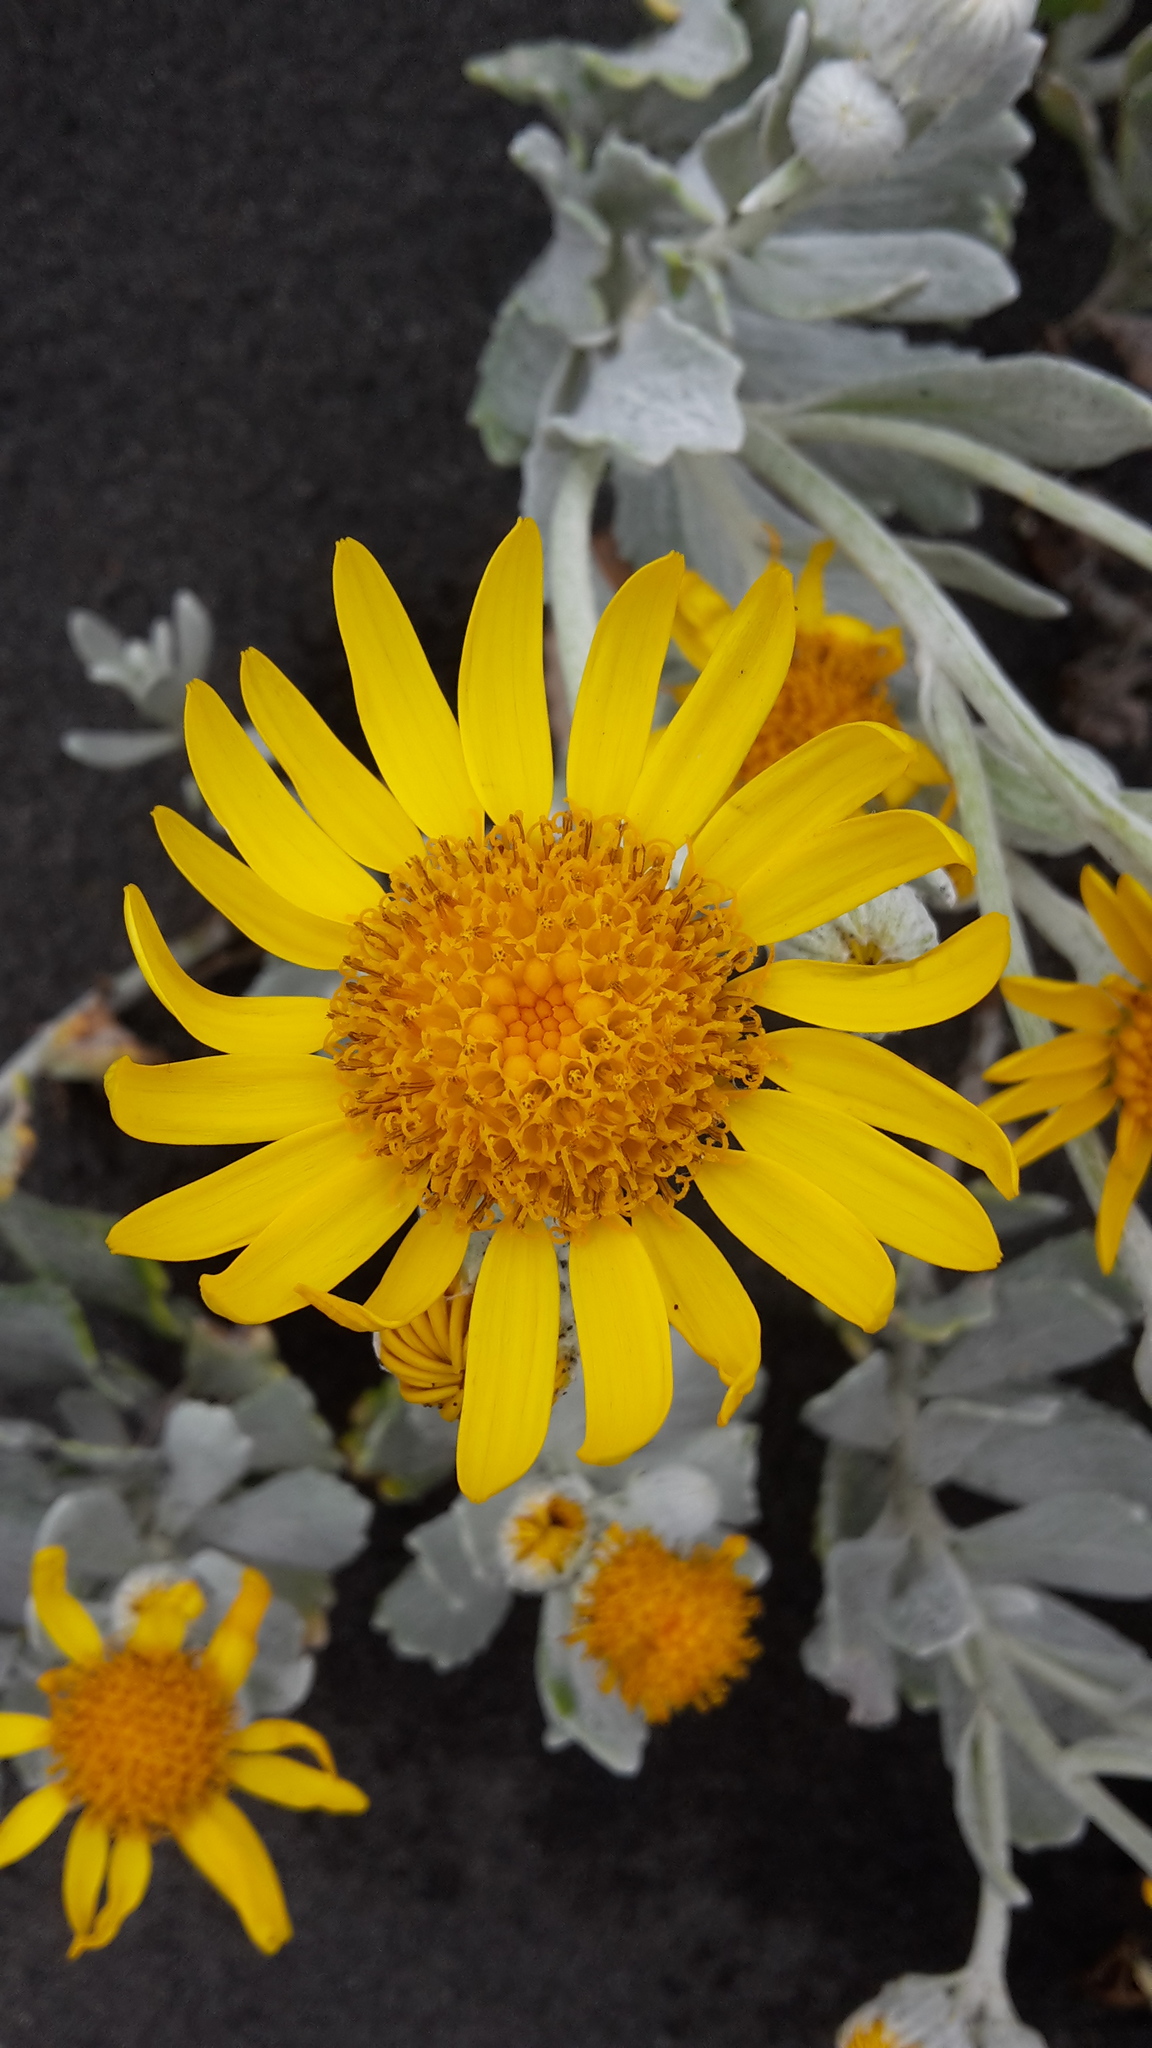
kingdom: Plantae
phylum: Tracheophyta
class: Magnoliopsida
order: Asterales
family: Asteraceae
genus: Senecio
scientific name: Senecio crassiflorus
